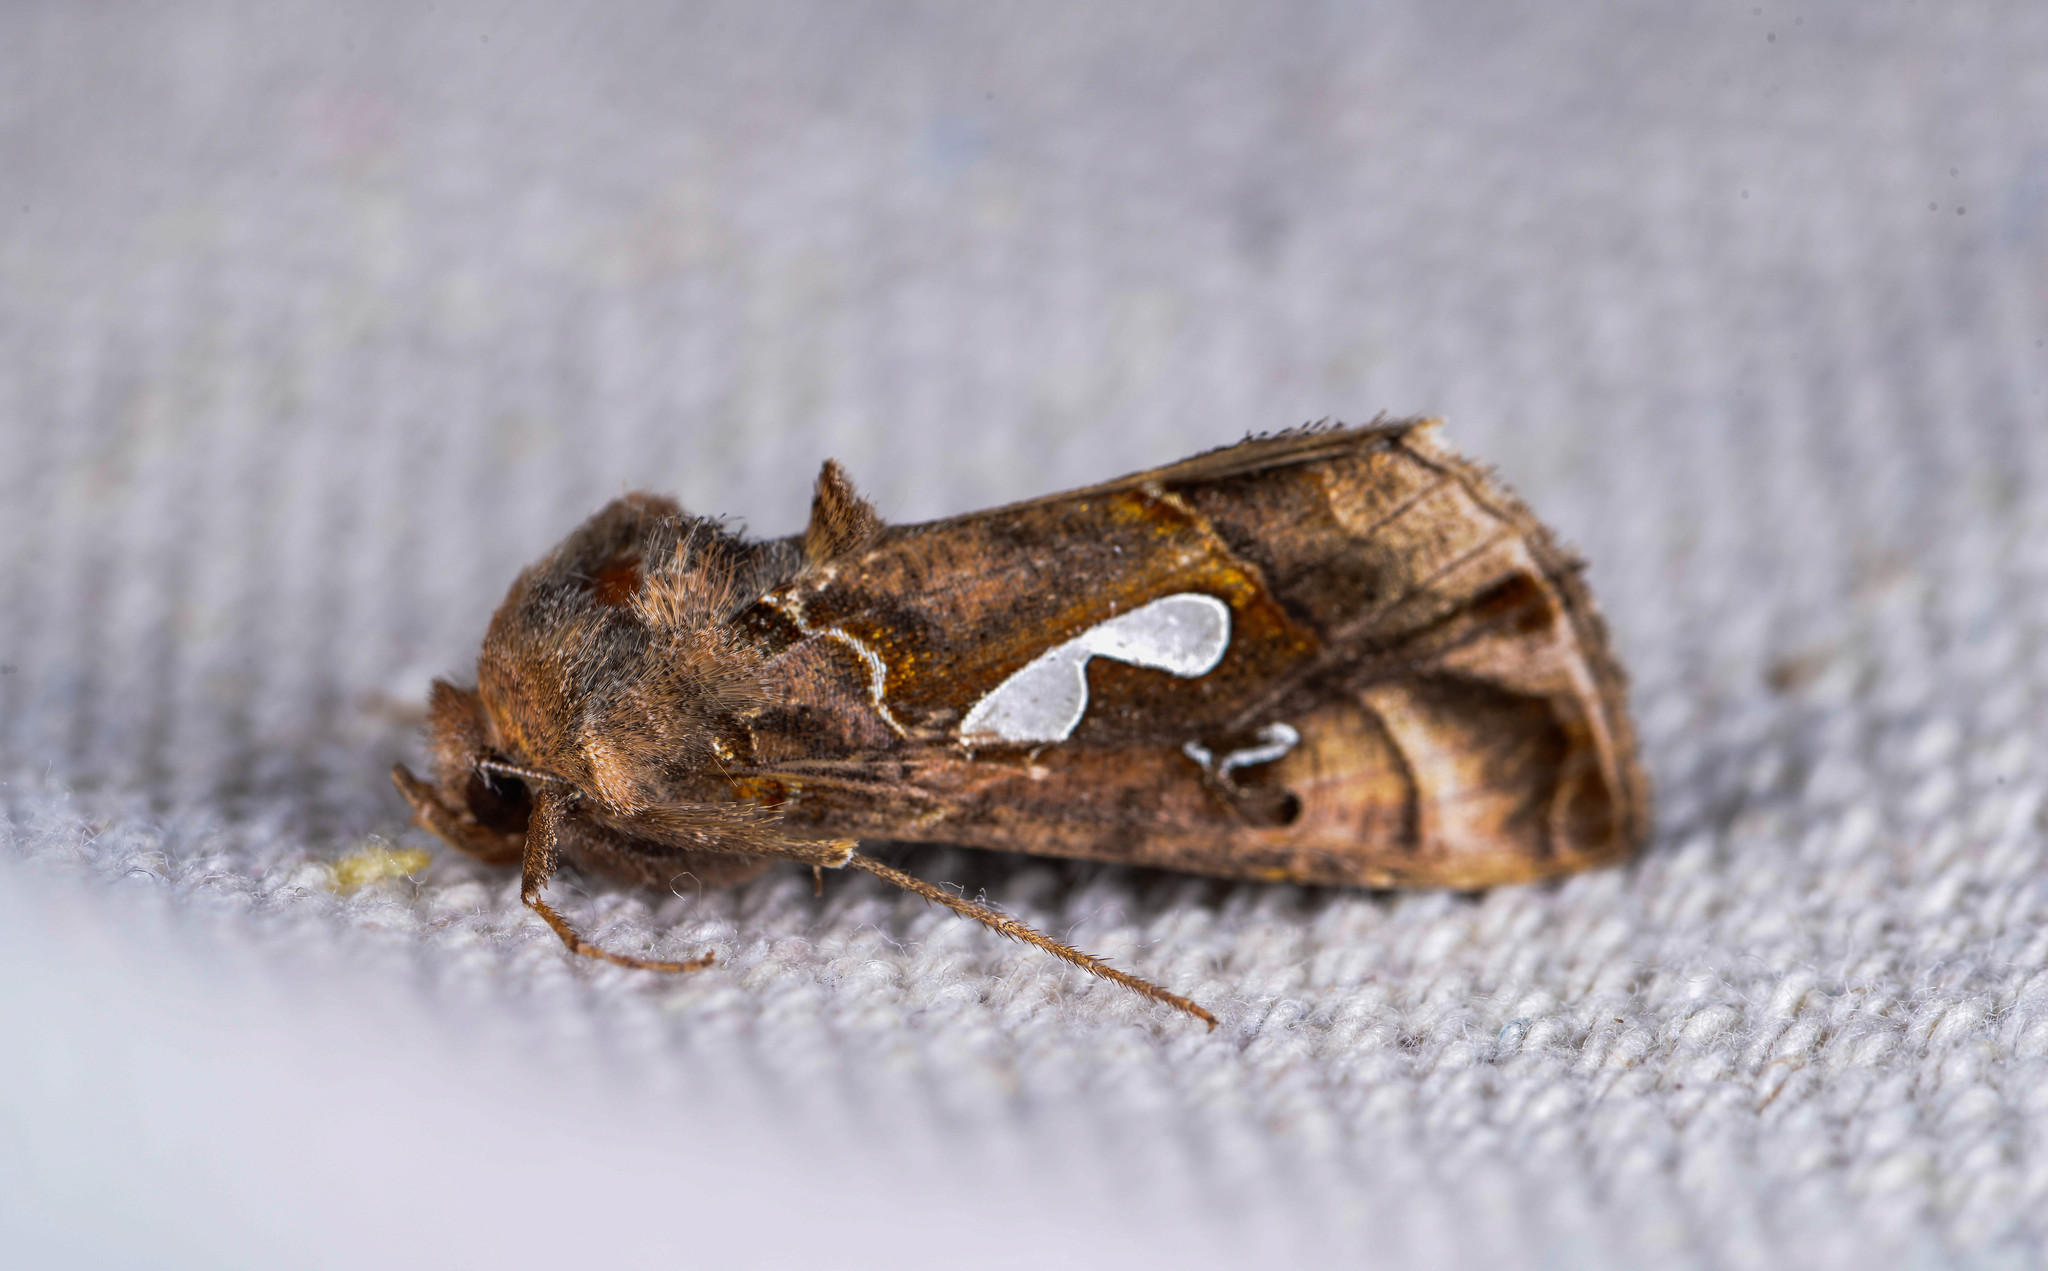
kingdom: Animalia
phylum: Arthropoda
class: Insecta
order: Lepidoptera
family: Noctuidae
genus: Megalographa
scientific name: Megalographa biloba
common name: Cutworm
